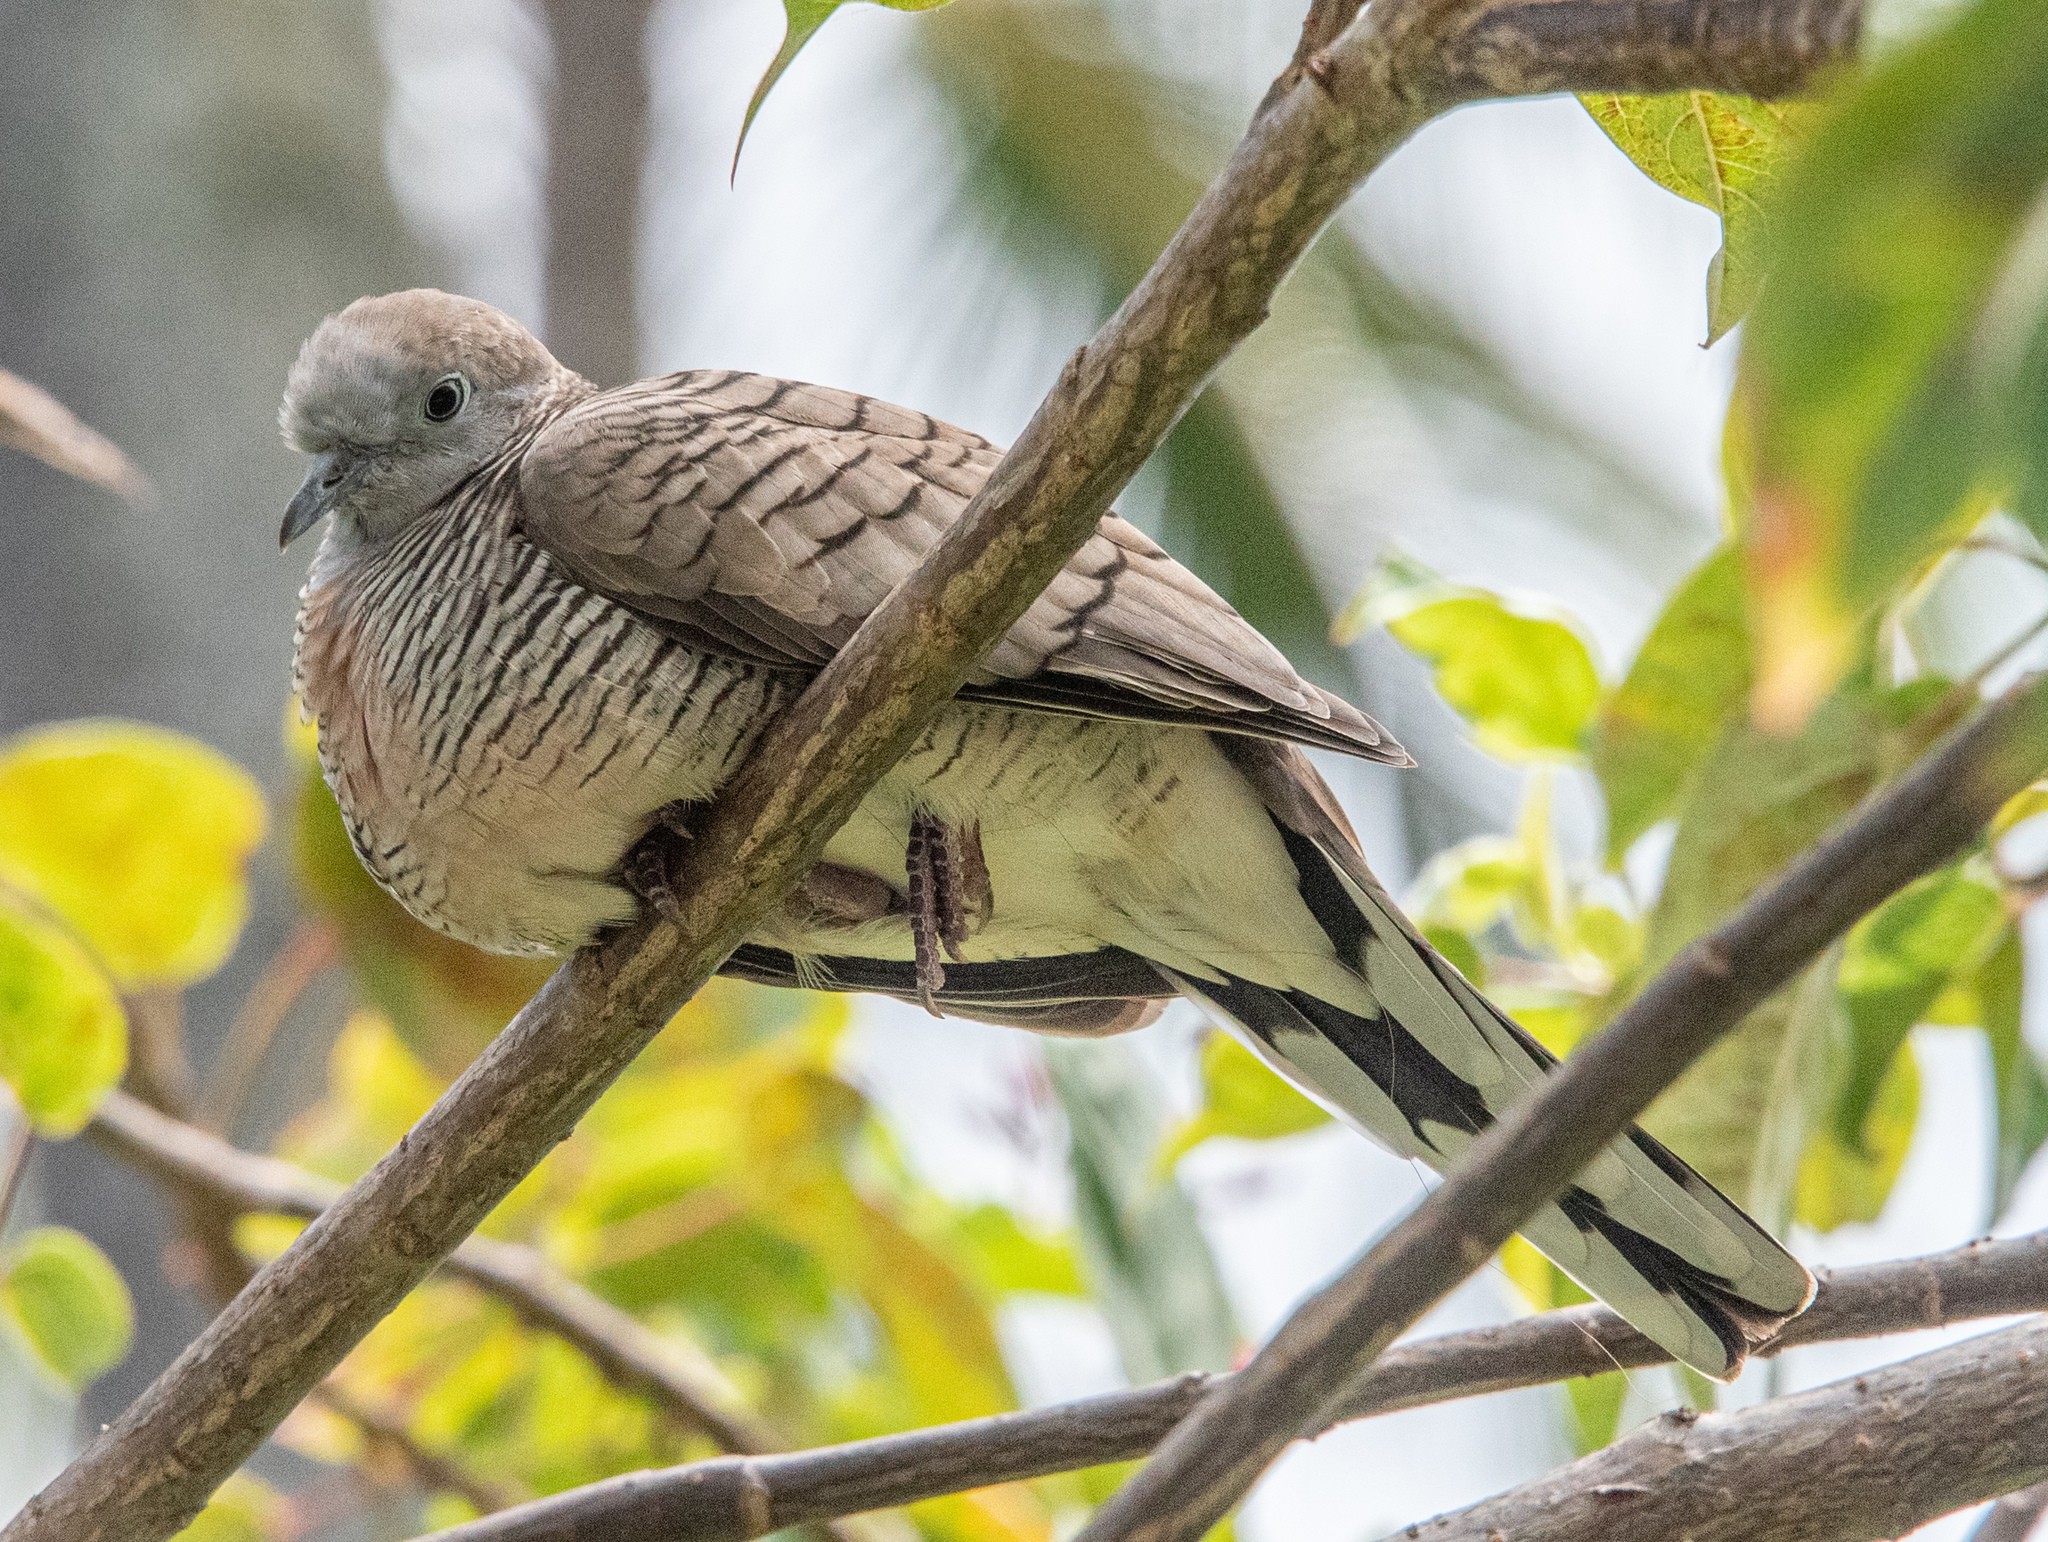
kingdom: Animalia
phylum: Chordata
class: Aves
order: Columbiformes
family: Columbidae
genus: Geopelia
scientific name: Geopelia striata
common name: Zebra dove
